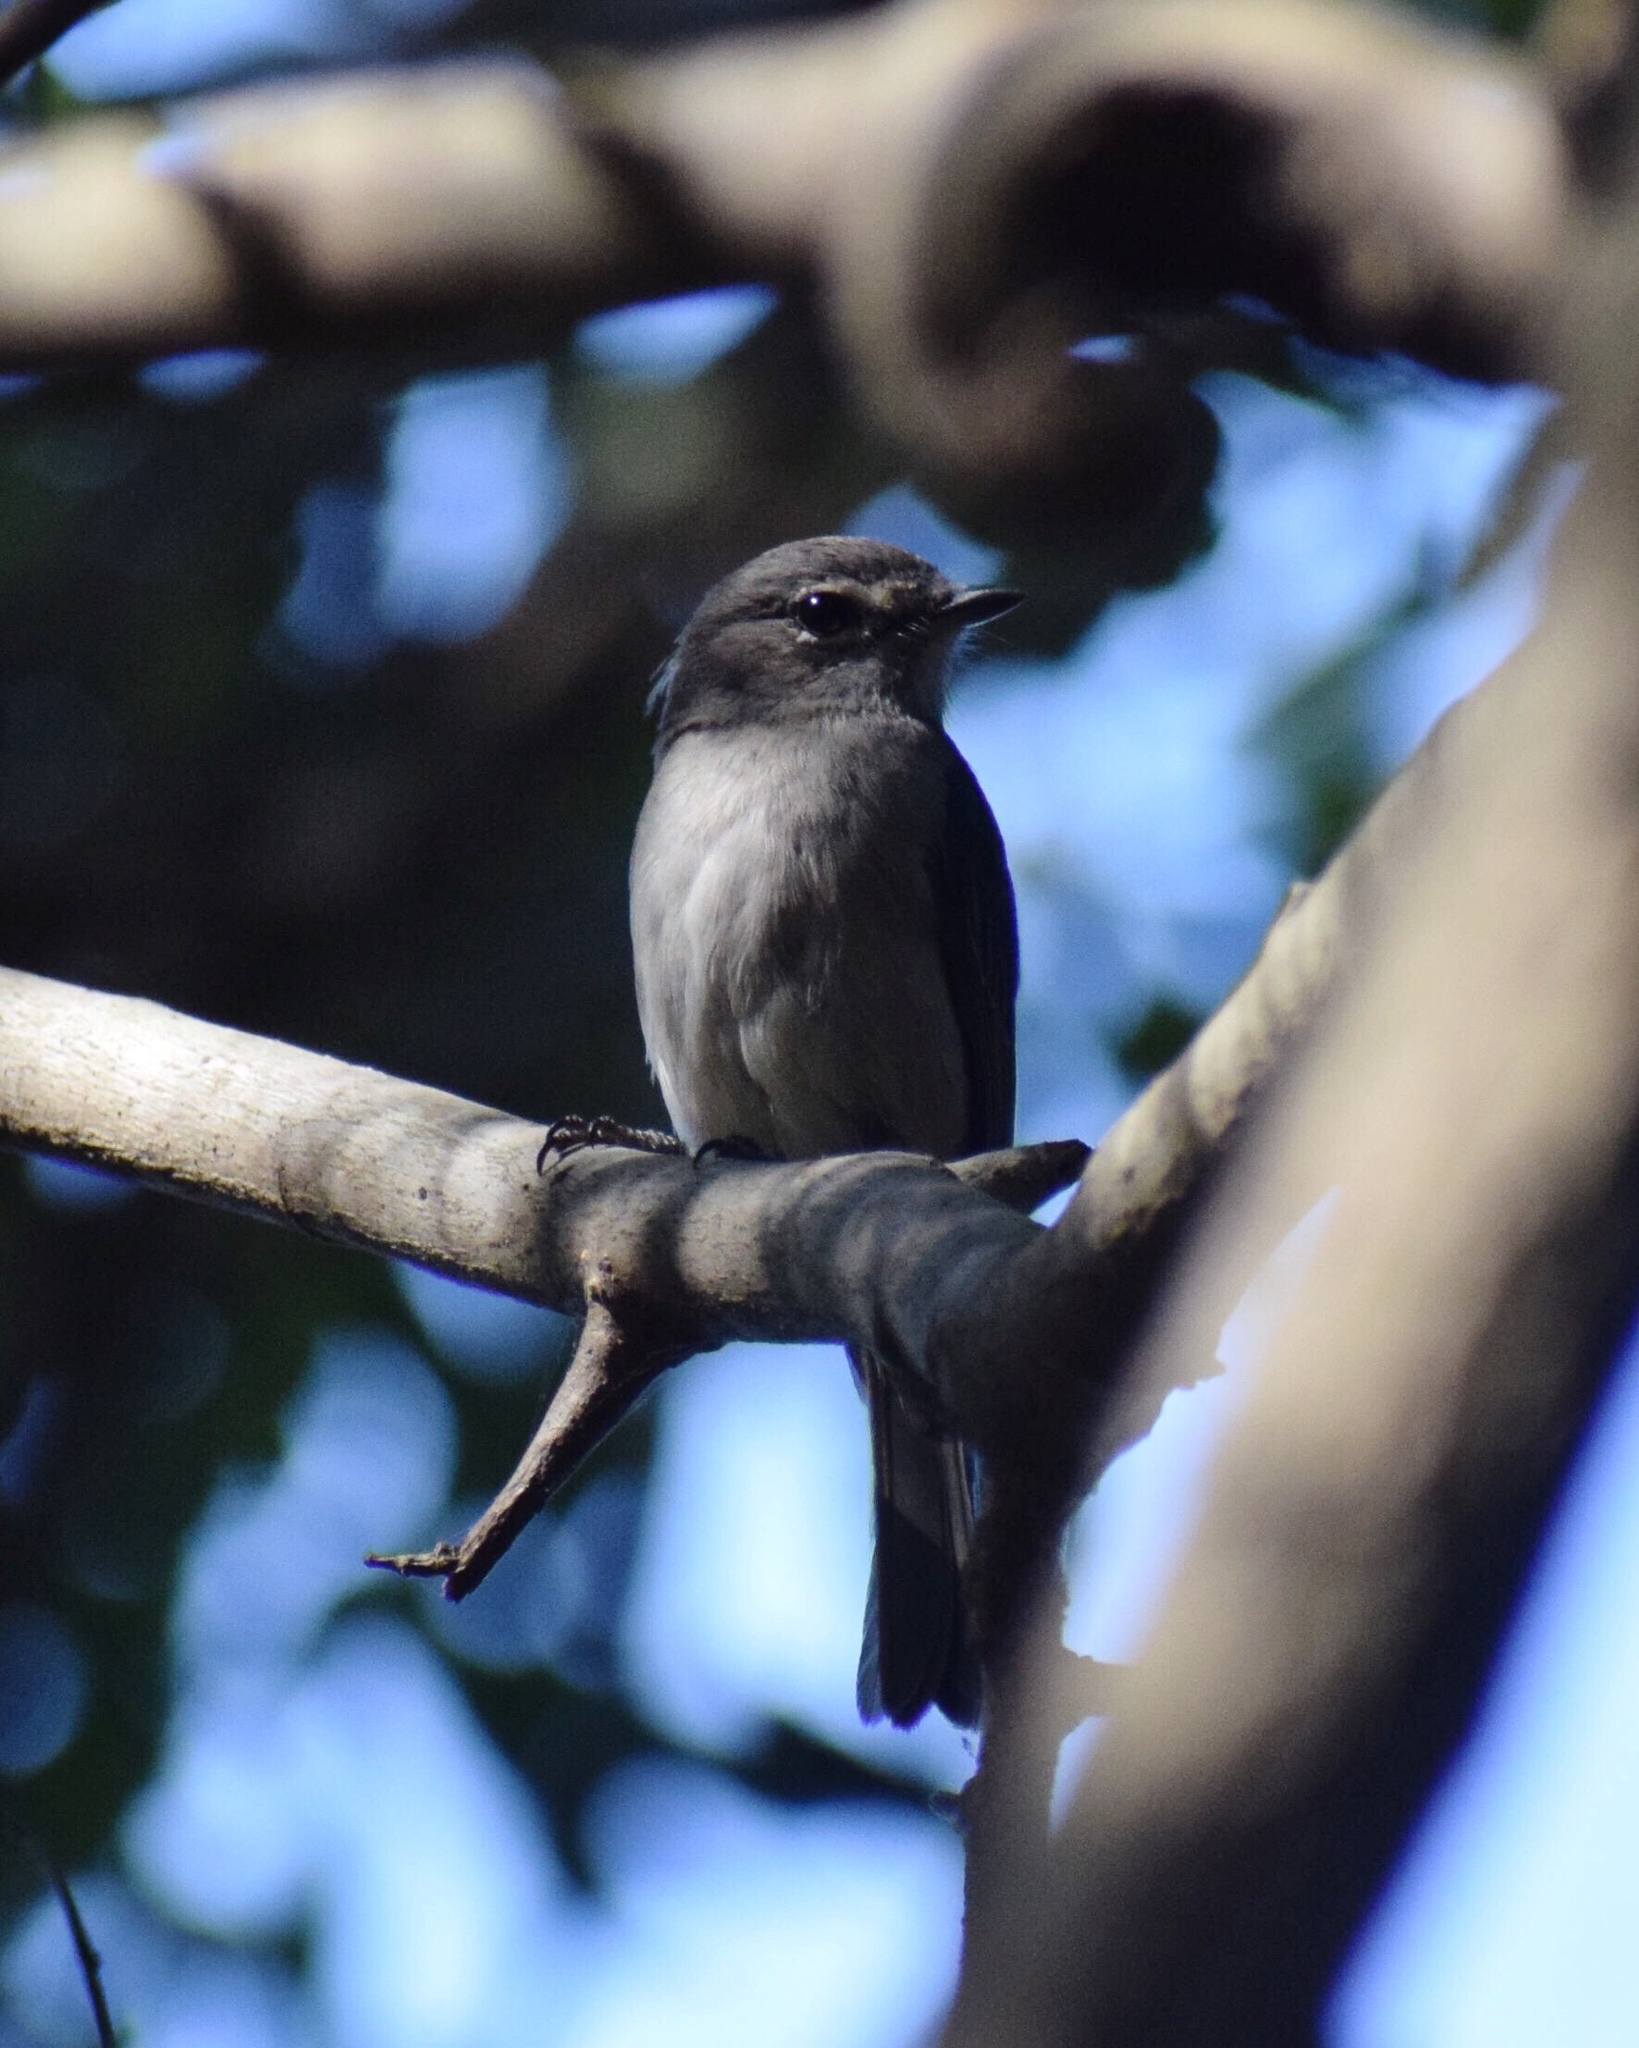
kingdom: Animalia
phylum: Chordata
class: Aves
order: Passeriformes
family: Muscicapidae
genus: Muscicapa
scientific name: Muscicapa adusta
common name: African dusky flycatcher
